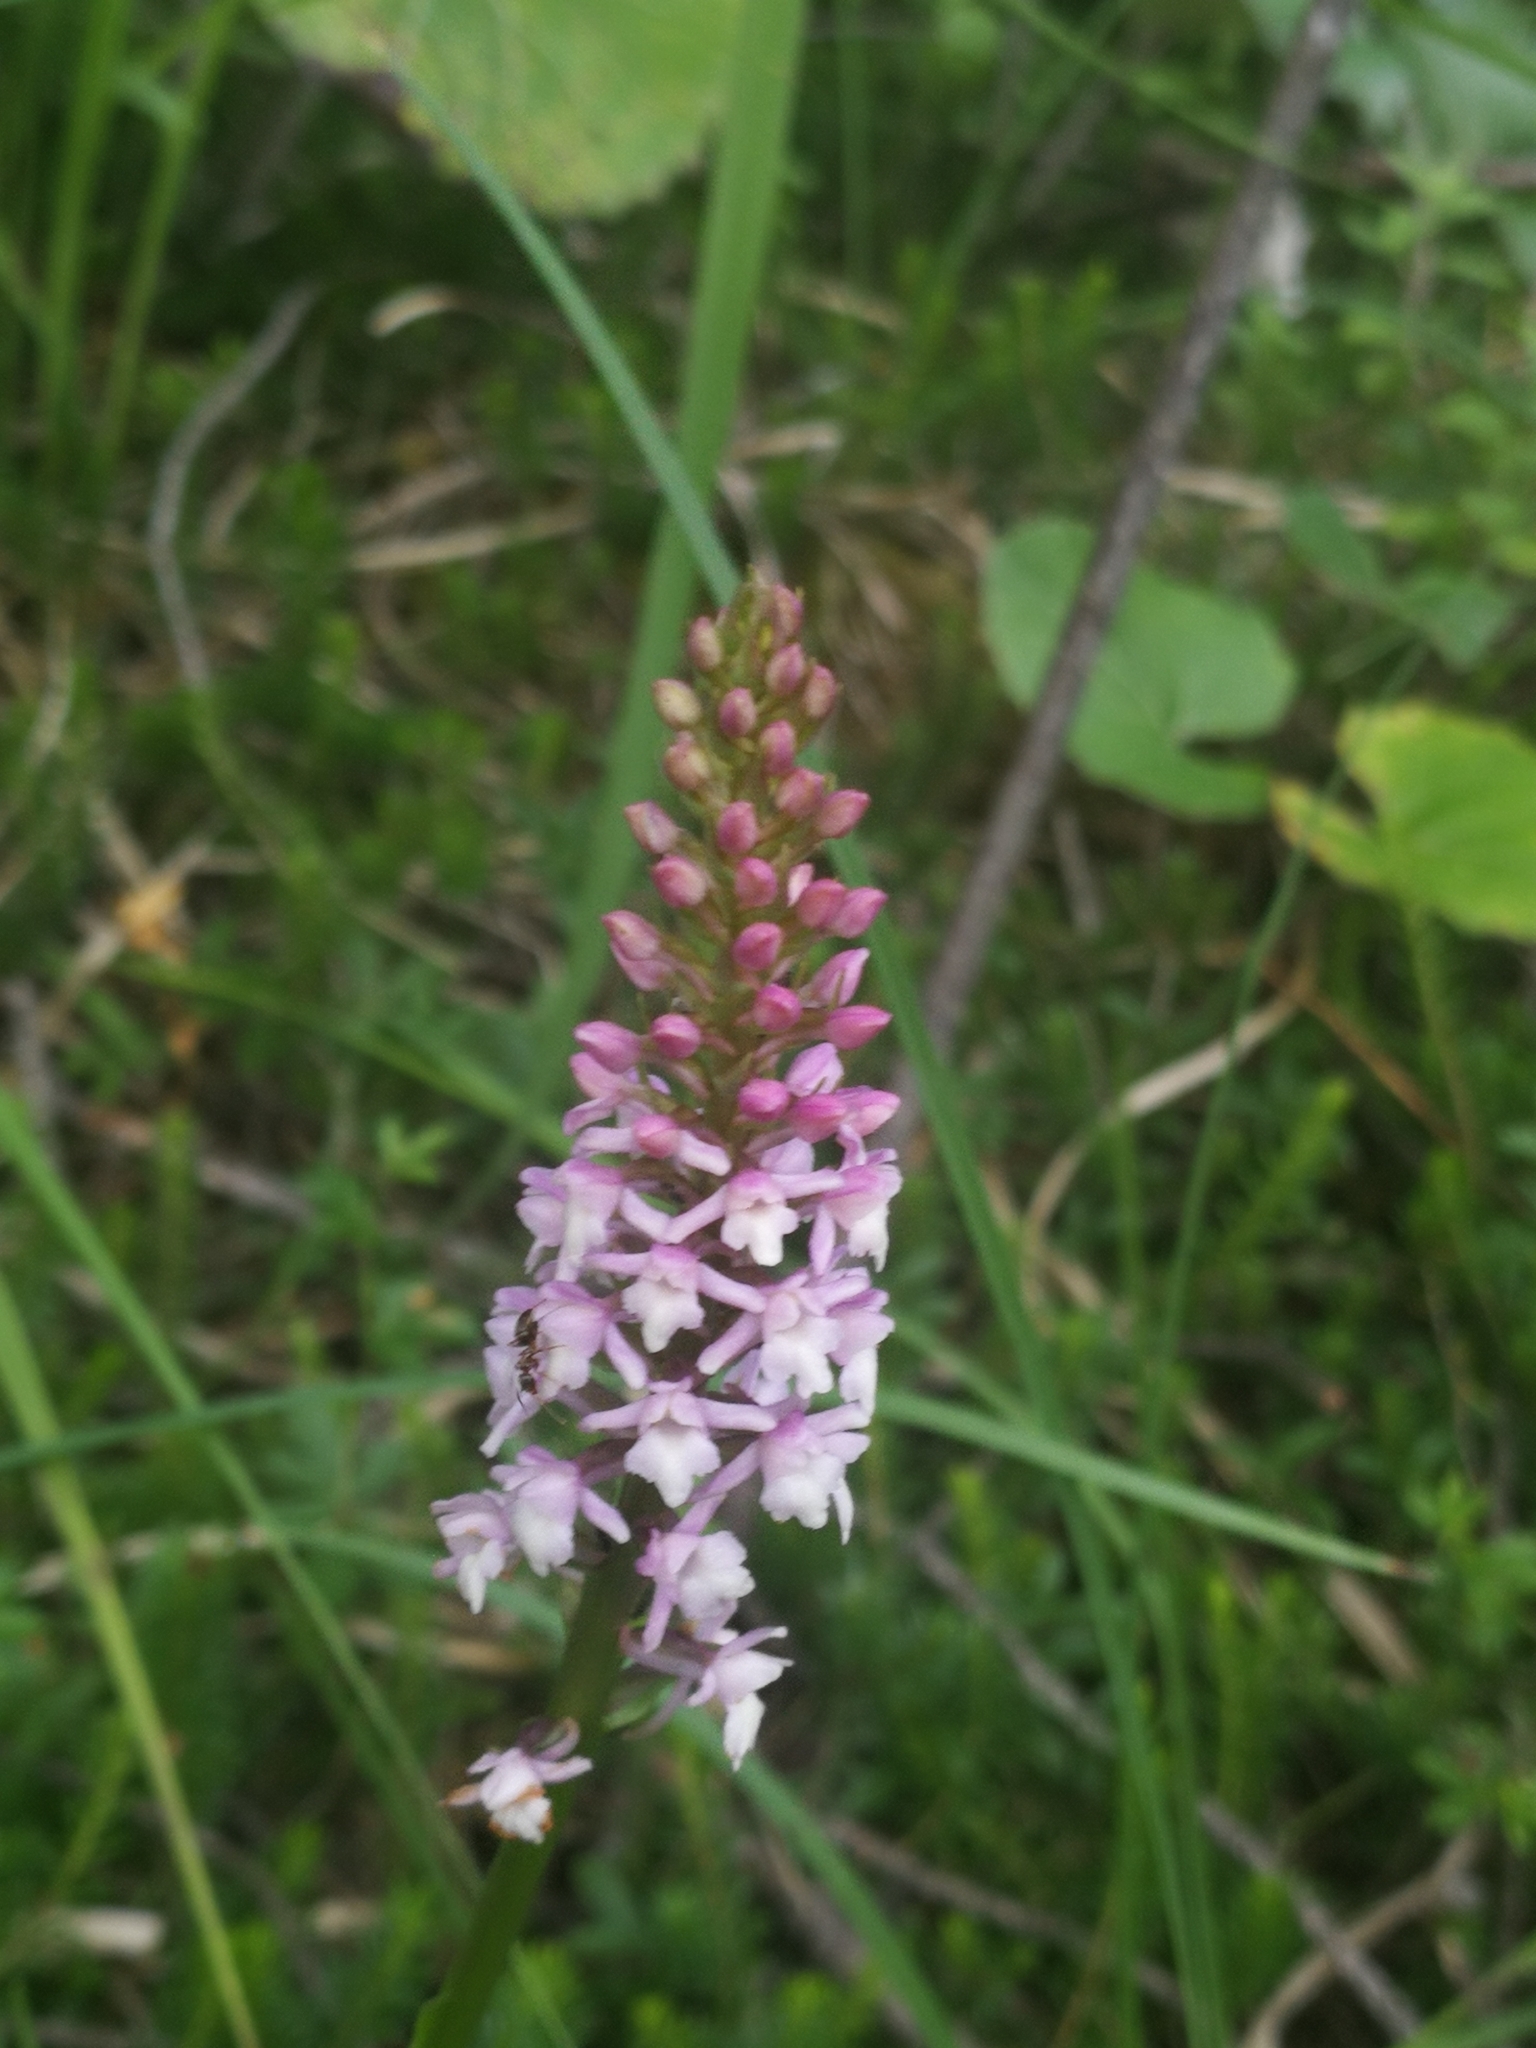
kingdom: Plantae
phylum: Tracheophyta
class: Liliopsida
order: Asparagales
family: Orchidaceae
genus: Gymnadenia
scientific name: Gymnadenia odoratissima
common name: Scented gymnadenia
